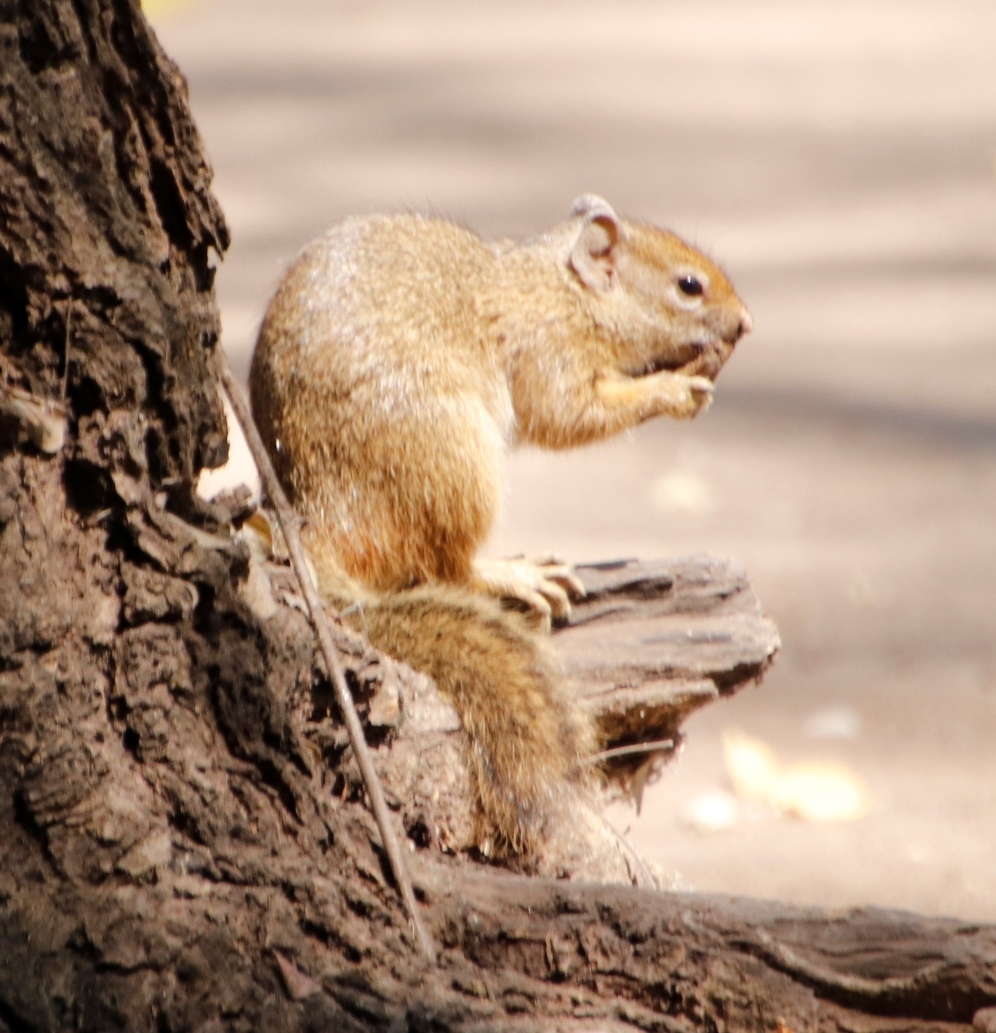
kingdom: Animalia
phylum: Chordata
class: Mammalia
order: Rodentia
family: Sciuridae
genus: Paraxerus
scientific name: Paraxerus cepapi
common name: Smith's bush squirrel
